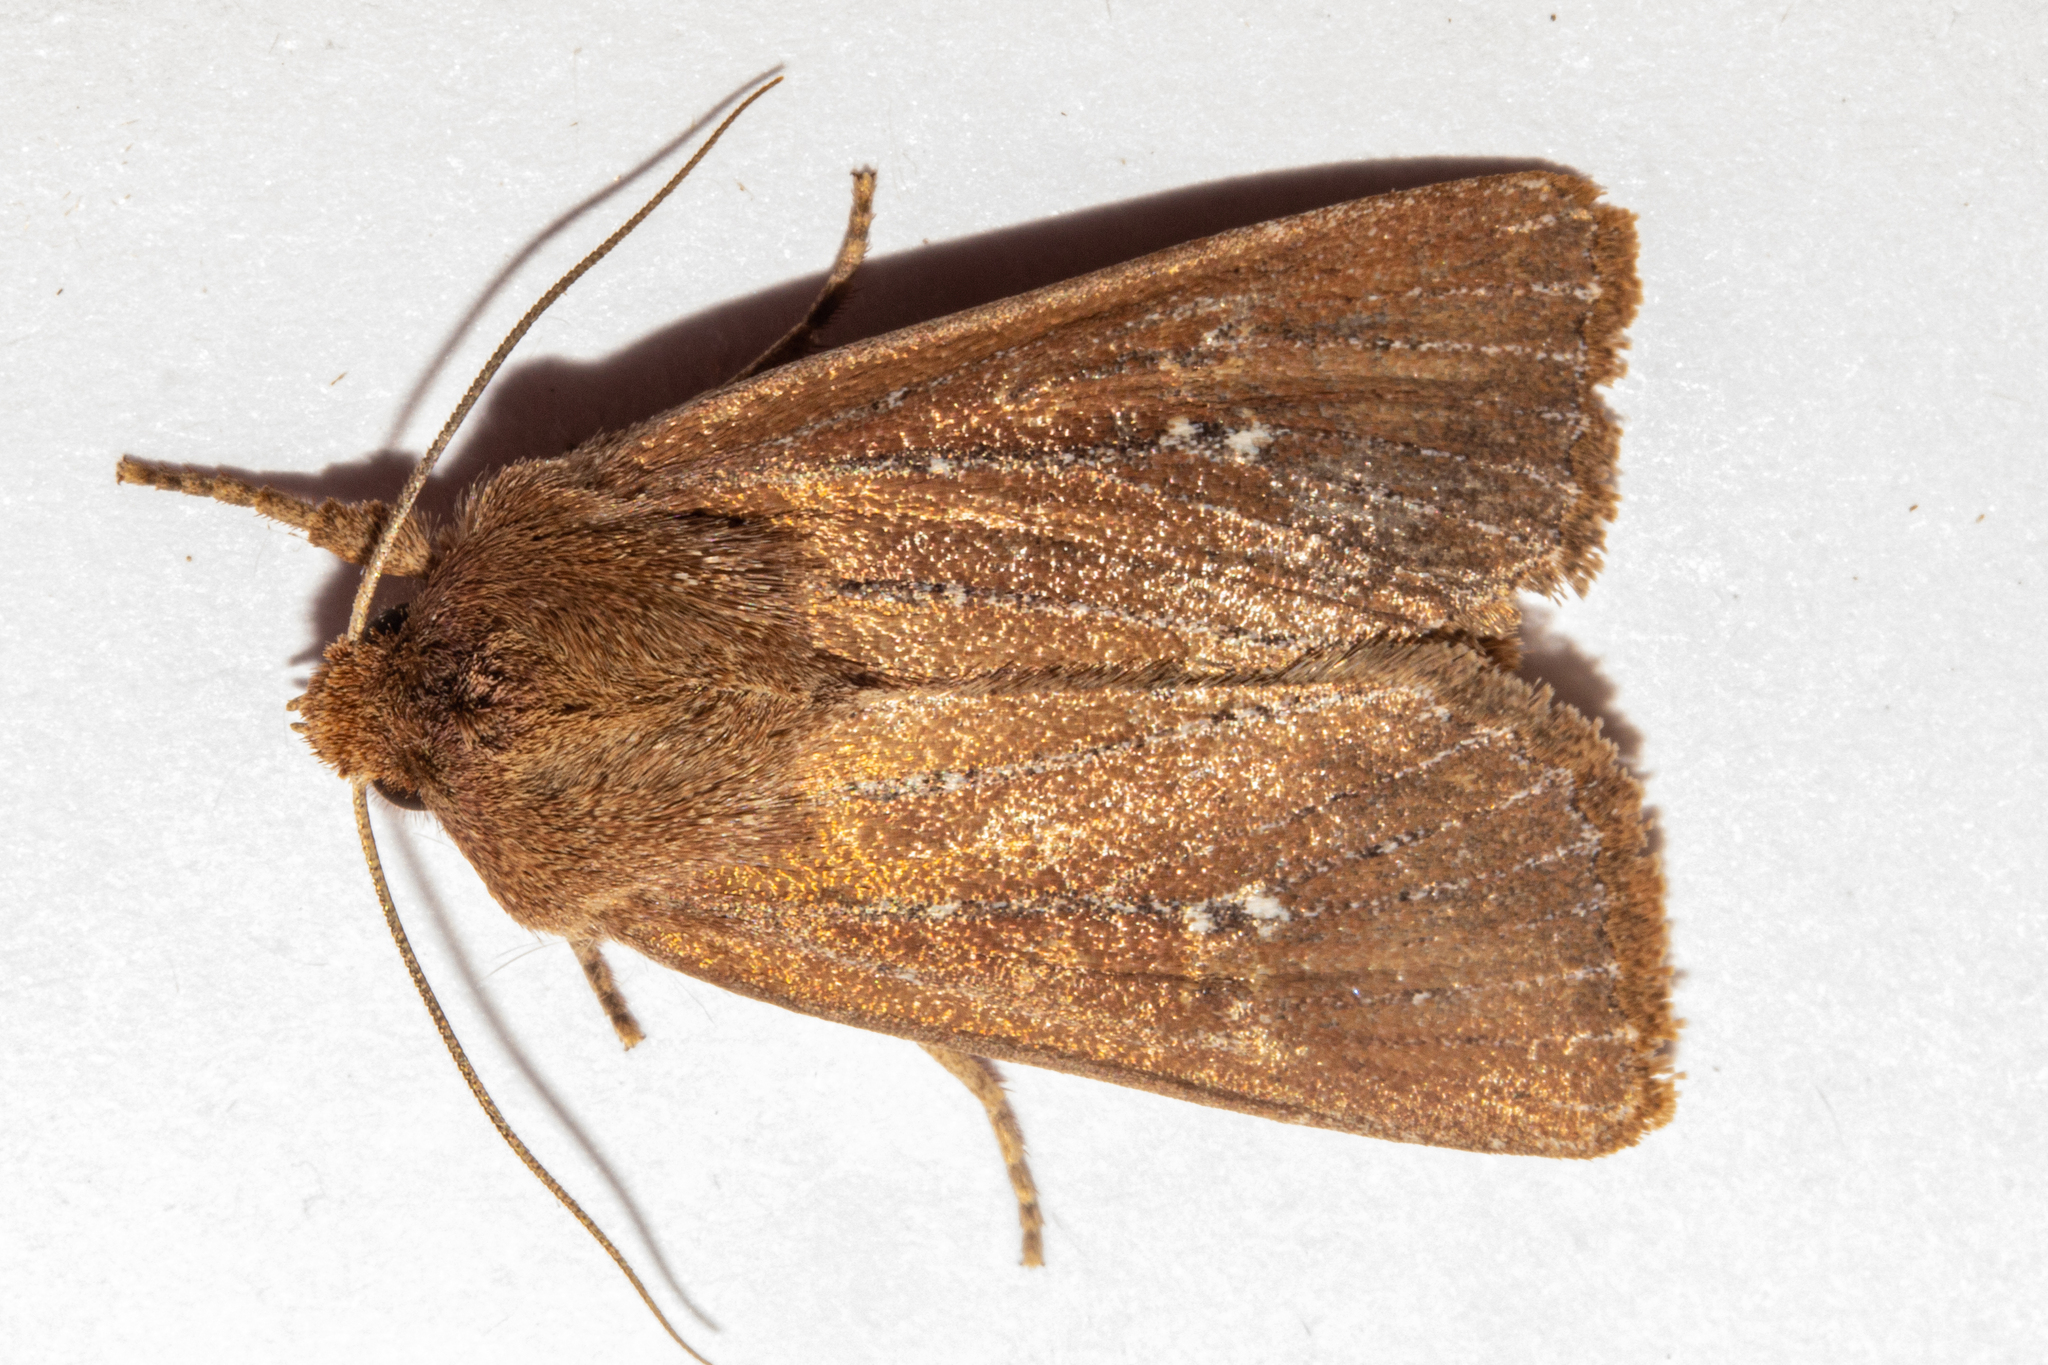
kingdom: Animalia
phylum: Arthropoda
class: Insecta
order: Lepidoptera
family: Noctuidae
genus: Ichneutica
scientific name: Ichneutica
